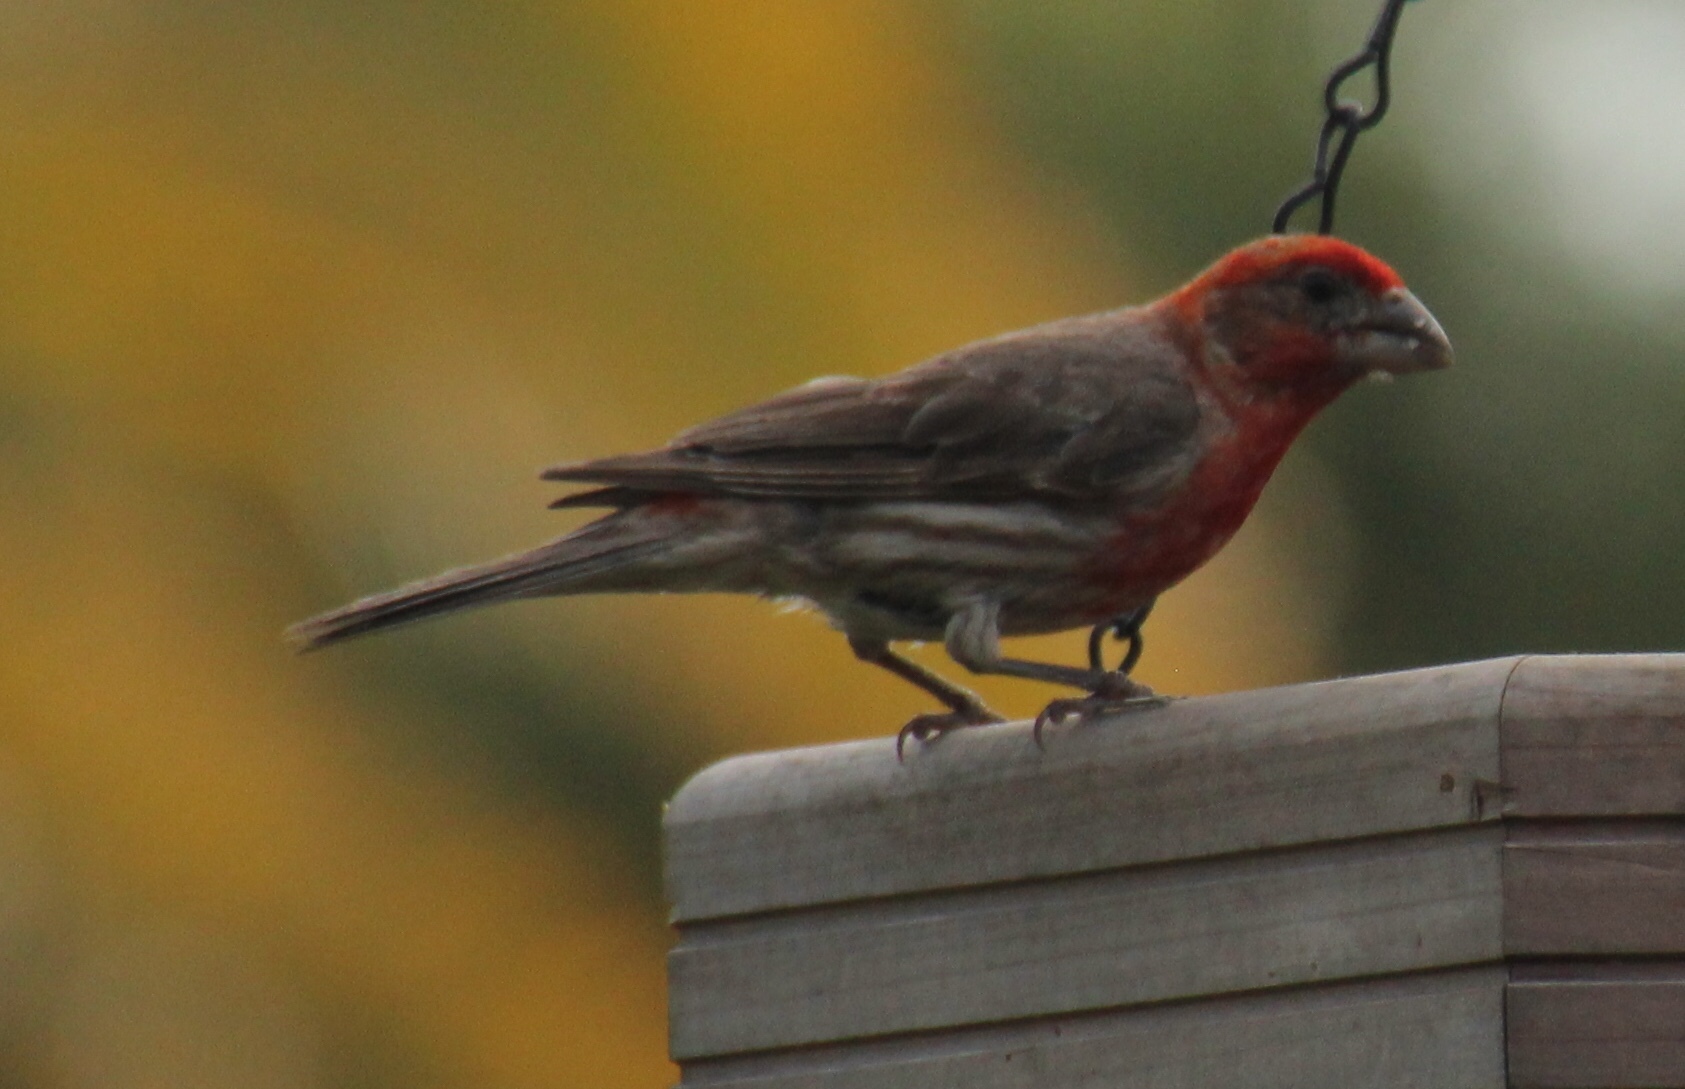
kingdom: Animalia
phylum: Chordata
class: Aves
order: Passeriformes
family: Fringillidae
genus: Haemorhous
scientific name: Haemorhous mexicanus
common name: House finch
